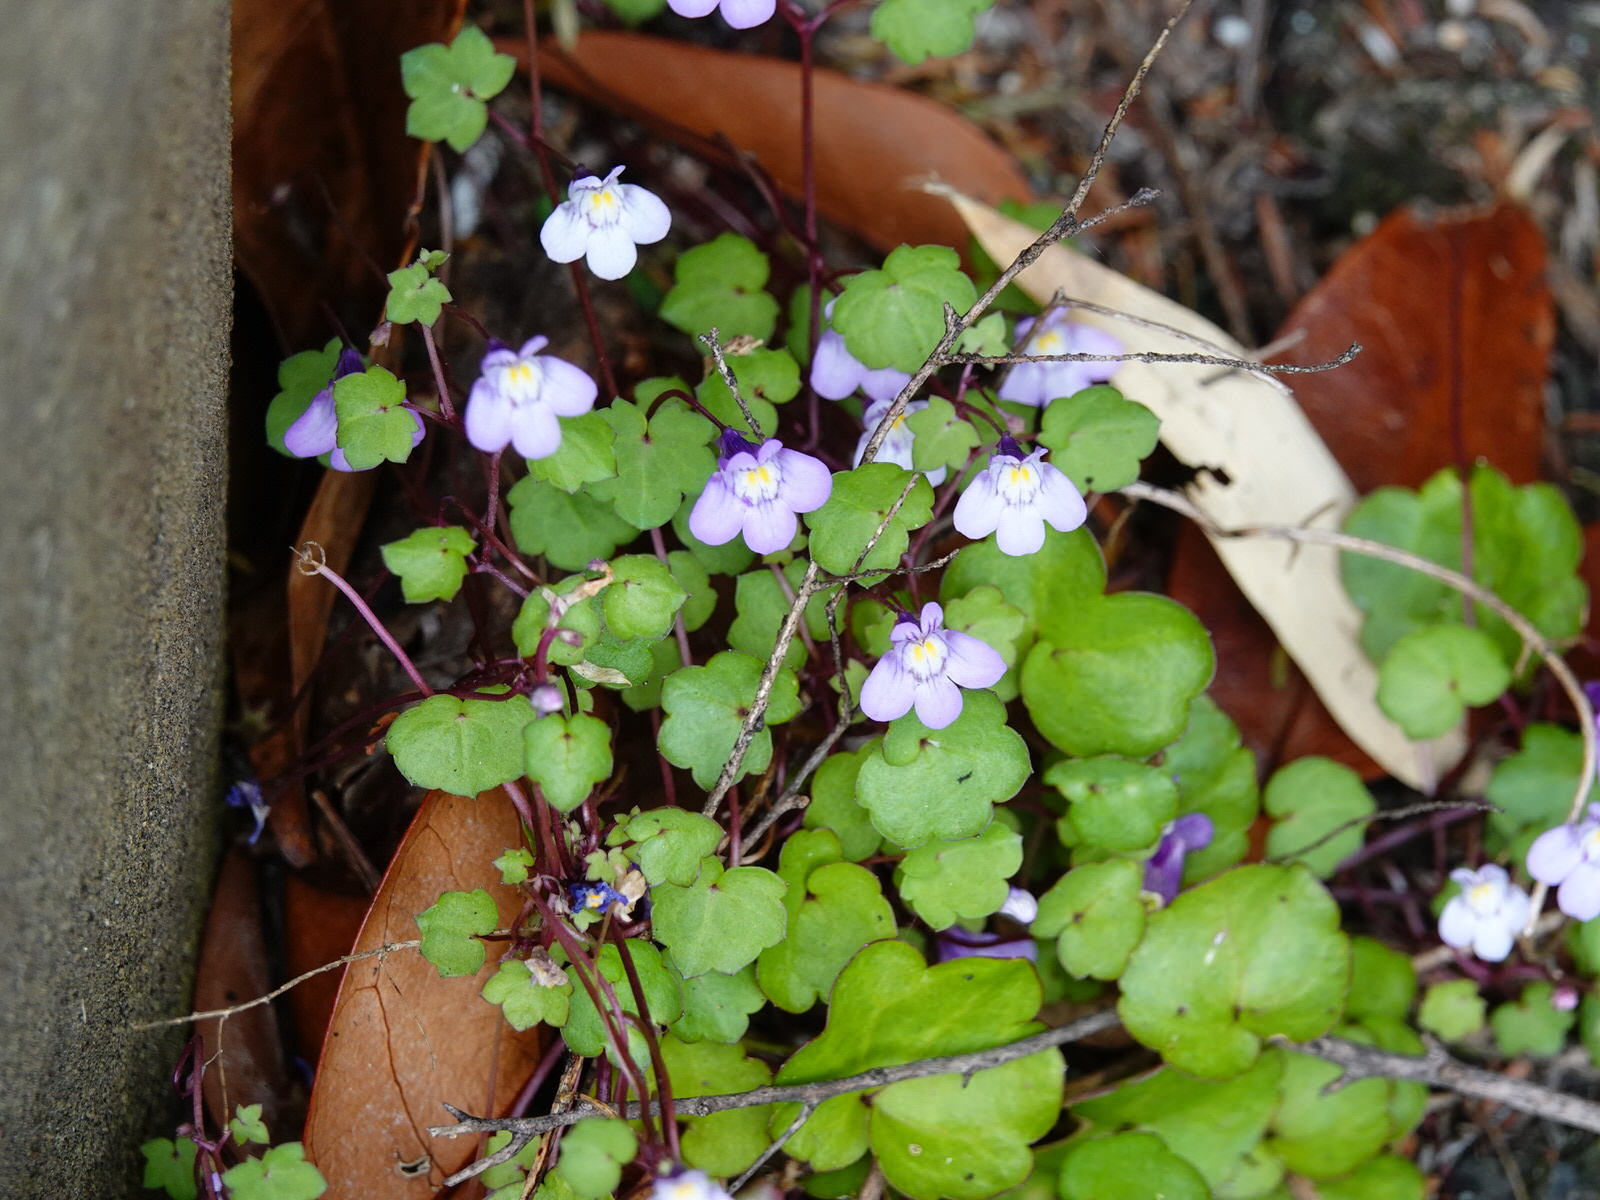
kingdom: Plantae
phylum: Tracheophyta
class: Magnoliopsida
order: Lamiales
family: Plantaginaceae
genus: Cymbalaria
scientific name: Cymbalaria muralis
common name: Ivy-leaved toadflax
